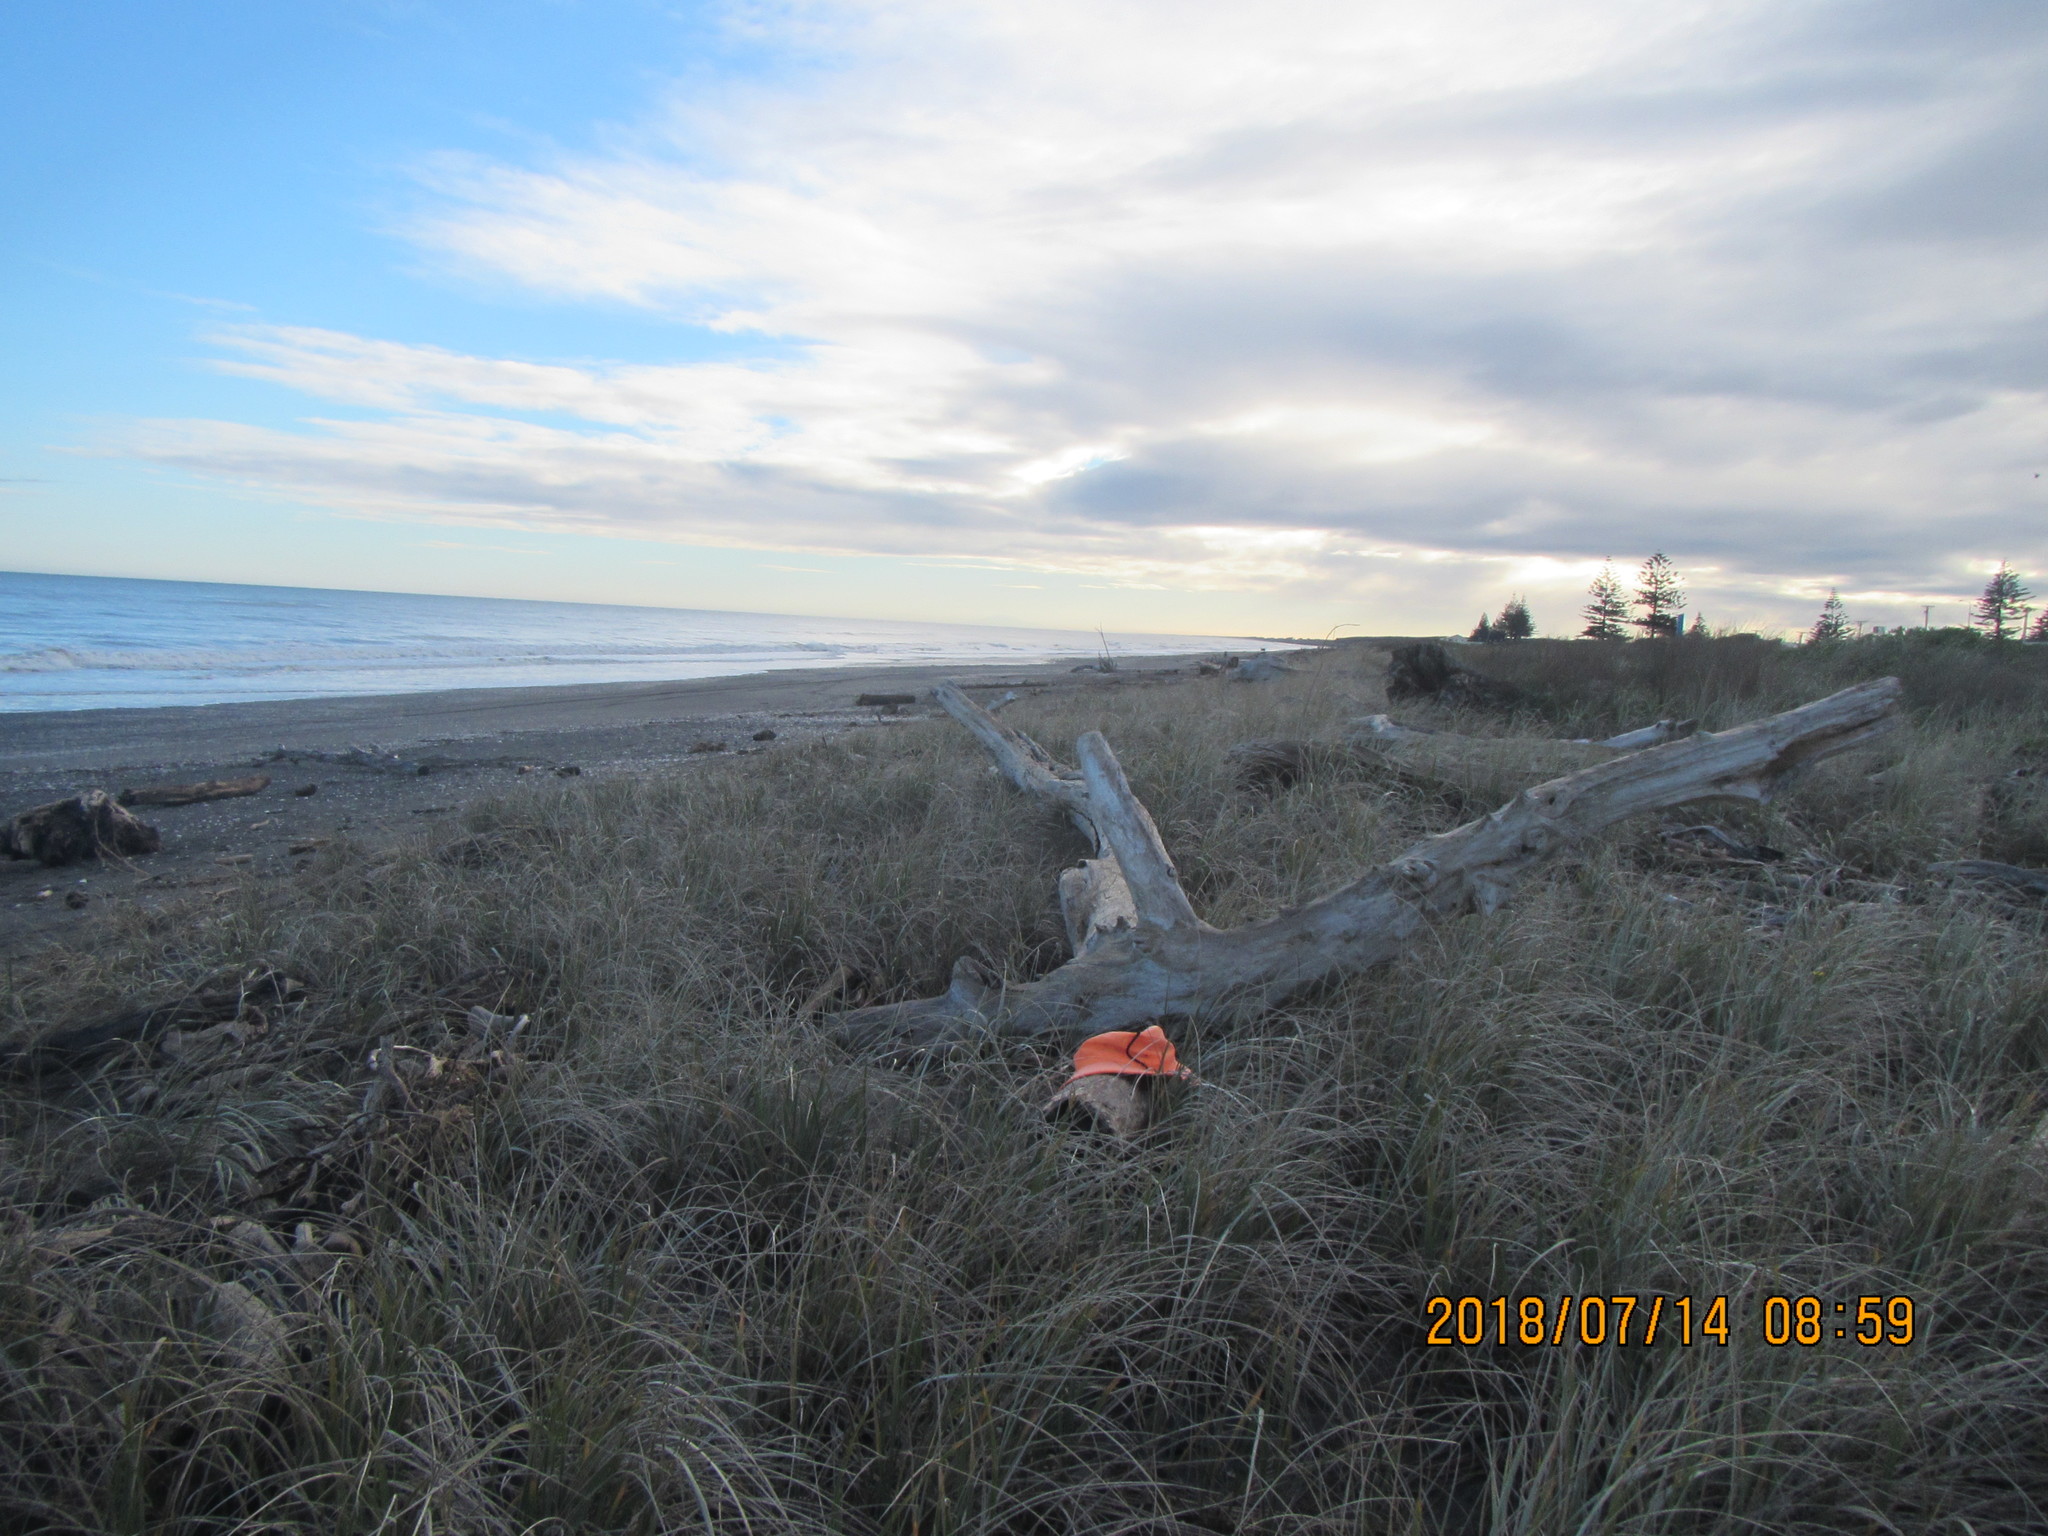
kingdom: Animalia
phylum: Arthropoda
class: Insecta
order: Coleoptera
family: Scarabaeidae
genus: Pericoptus
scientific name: Pericoptus truncatus
